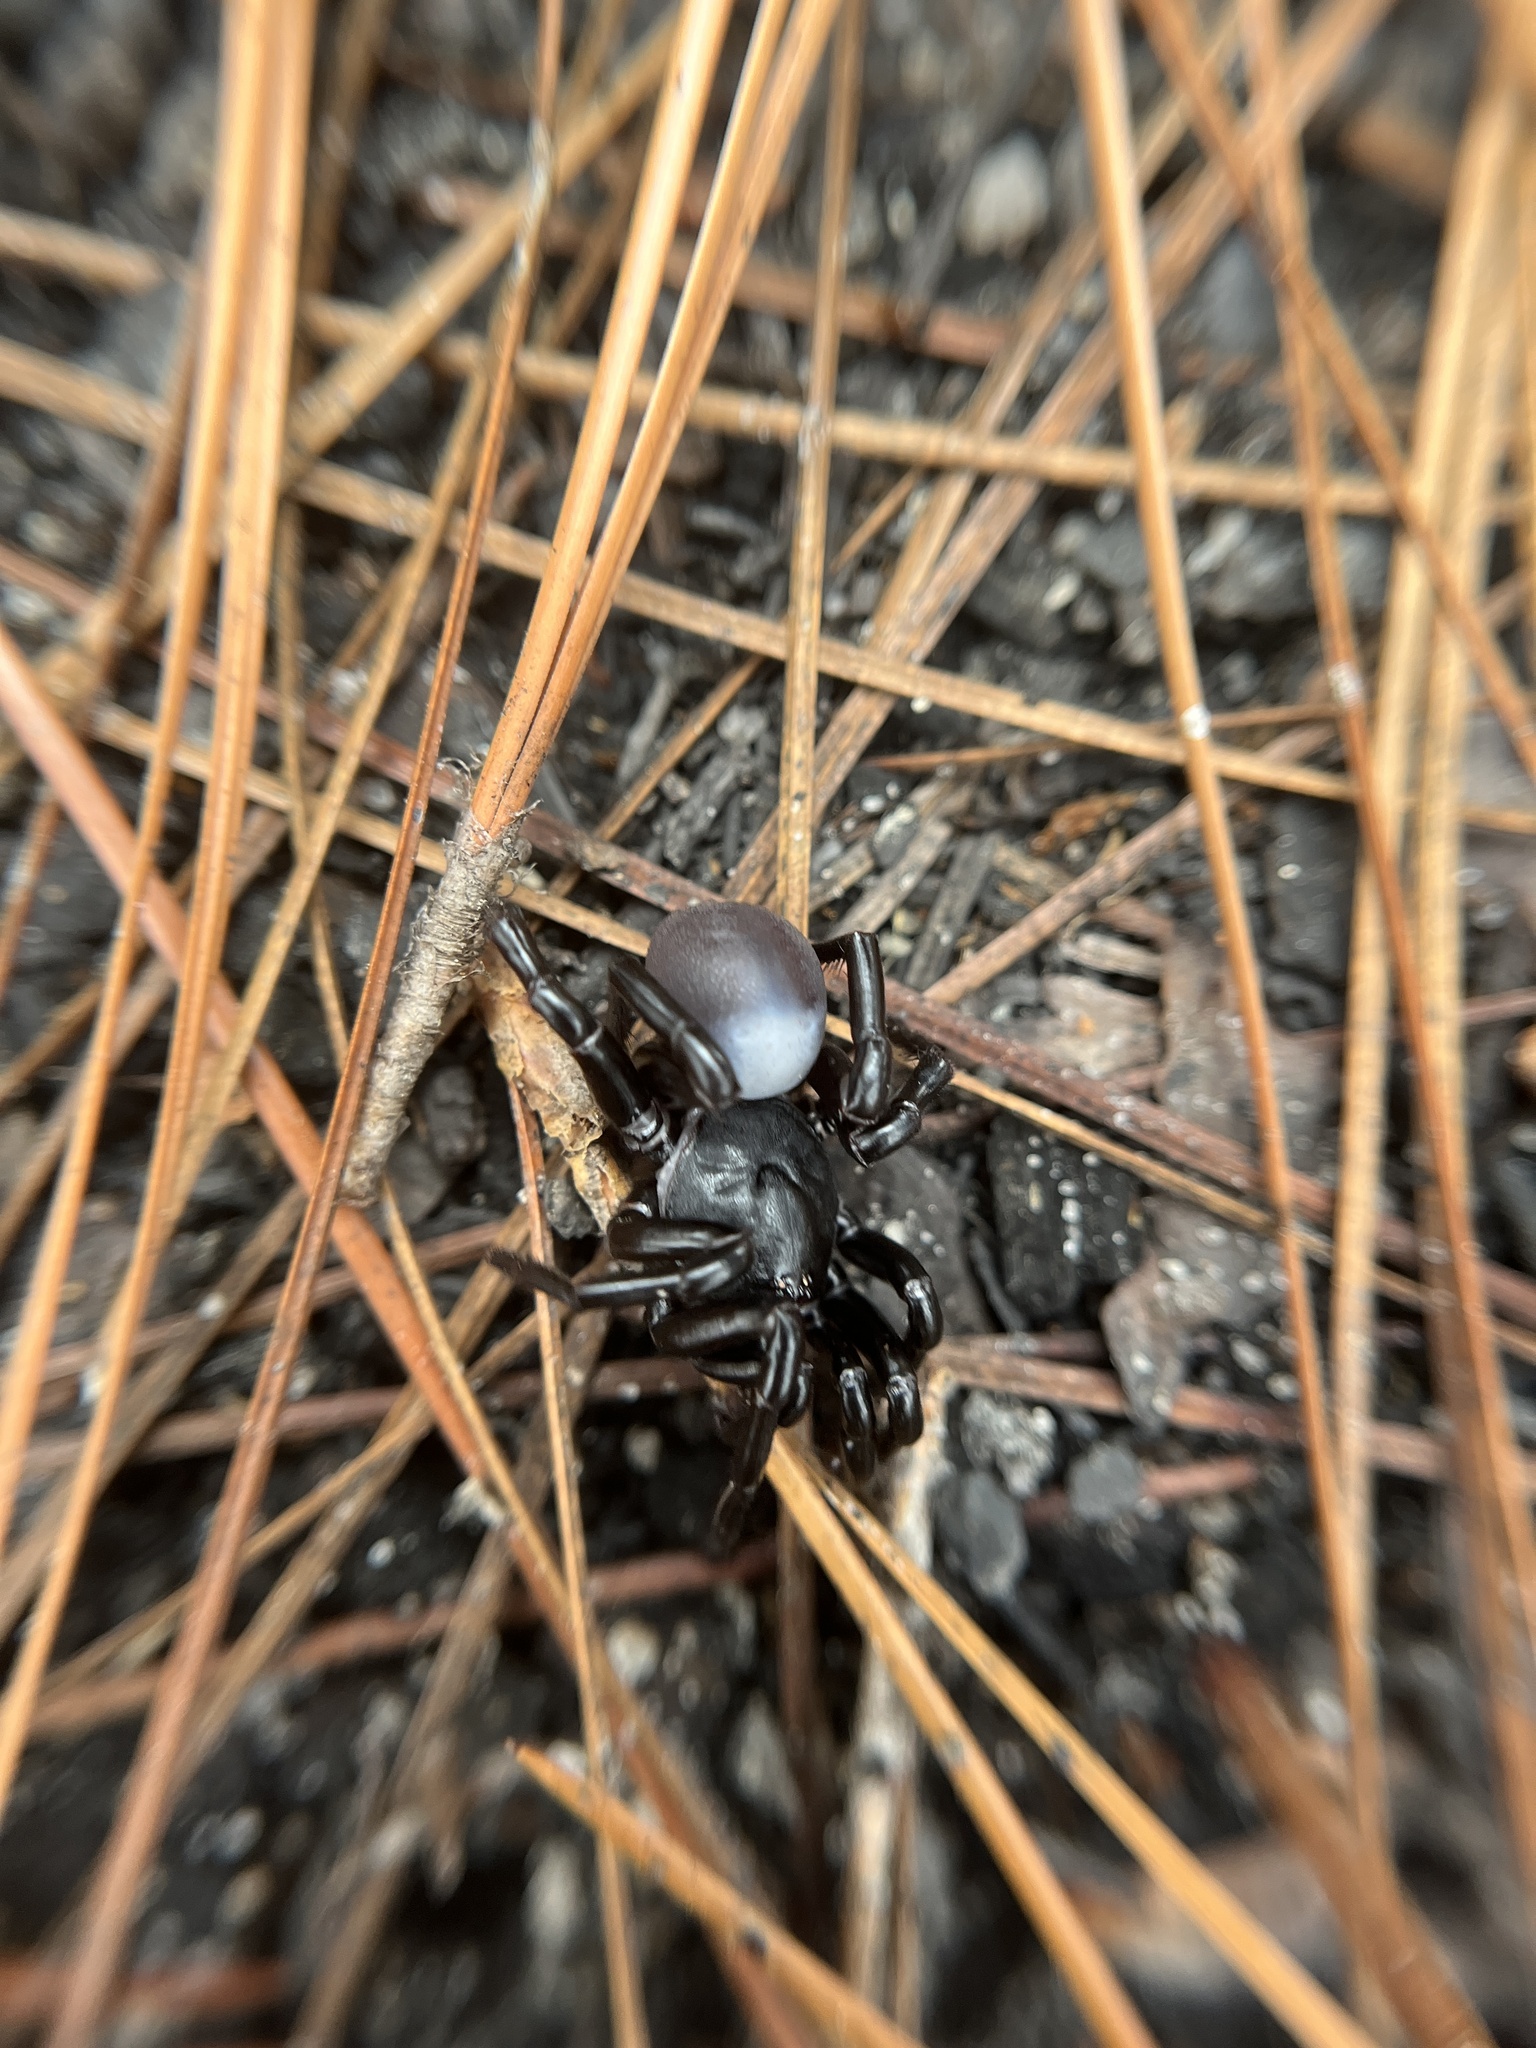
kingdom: Animalia
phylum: Arthropoda
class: Arachnida
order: Araneae
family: Halonoproctidae
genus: Ummidia
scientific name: Ummidia rongodwini
